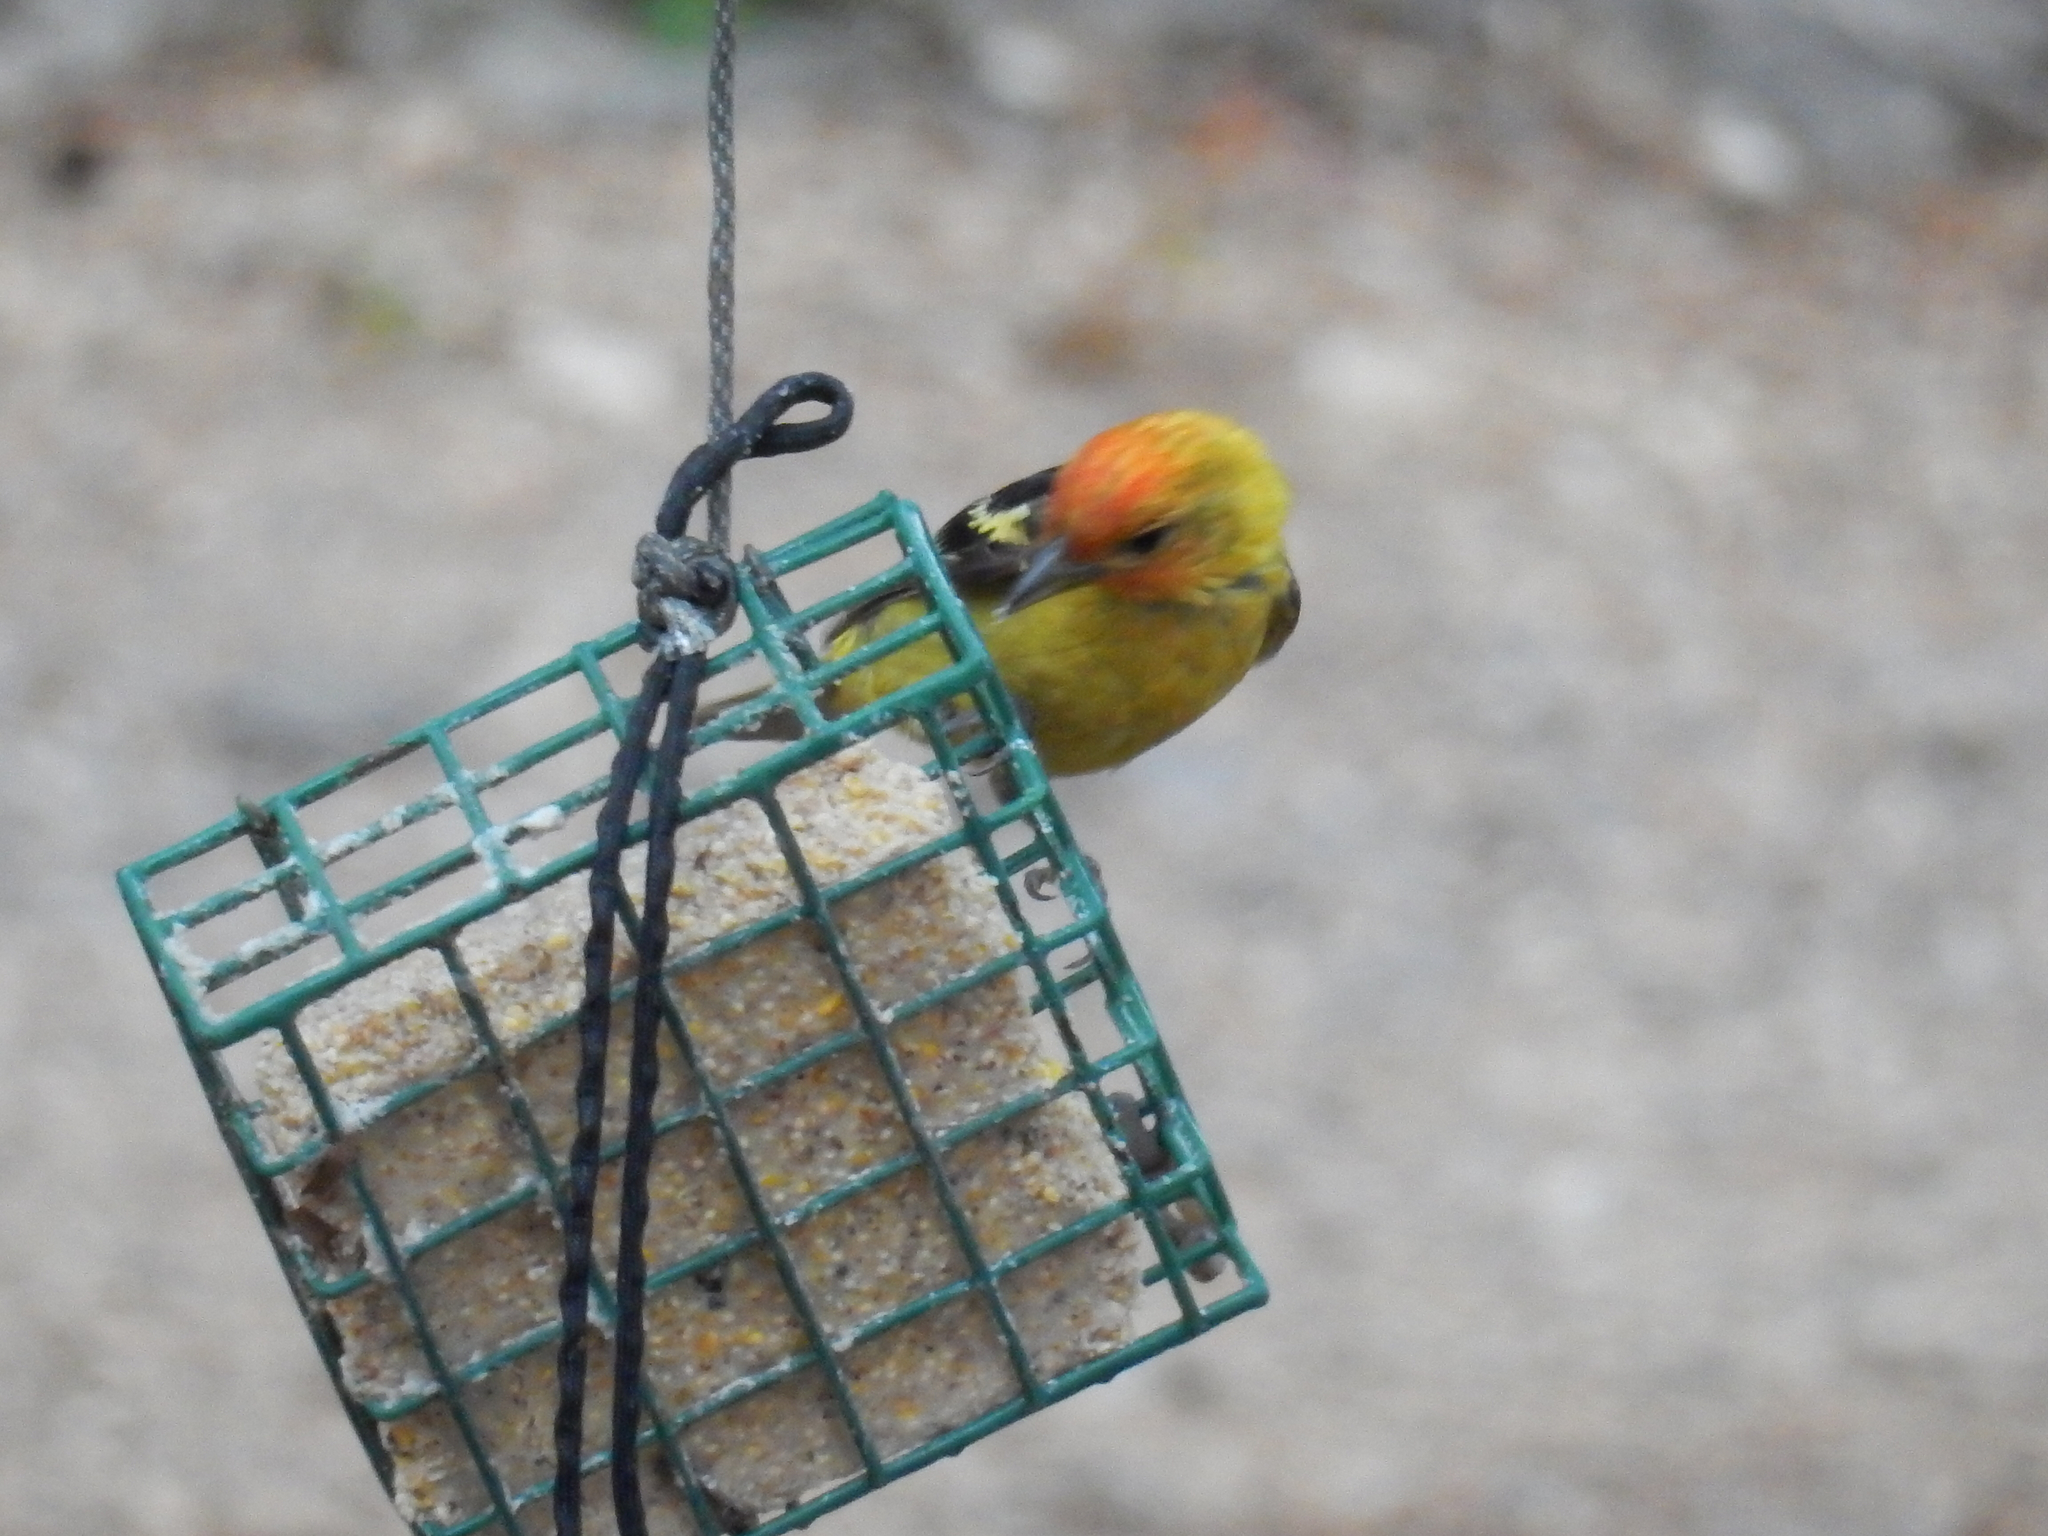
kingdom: Animalia
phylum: Chordata
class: Aves
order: Passeriformes
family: Cardinalidae
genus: Piranga
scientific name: Piranga ludoviciana
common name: Western tanager
